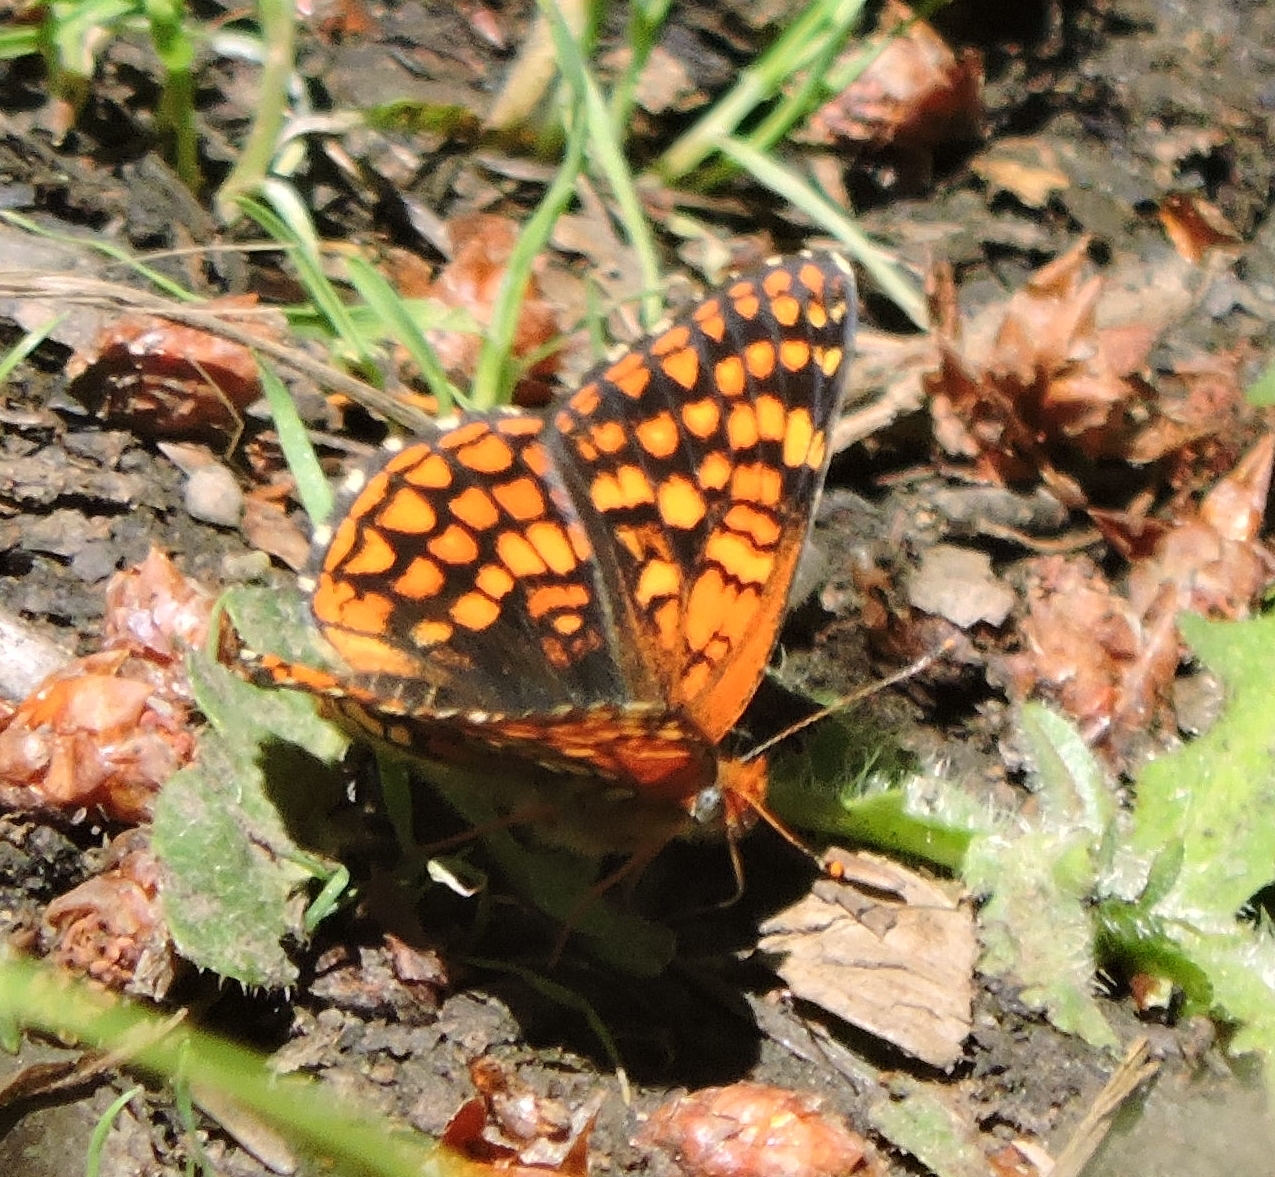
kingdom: Animalia
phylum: Arthropoda
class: Insecta
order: Lepidoptera
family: Nymphalidae
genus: Chlosyne
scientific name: Chlosyne palla
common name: Northern checkerspot
